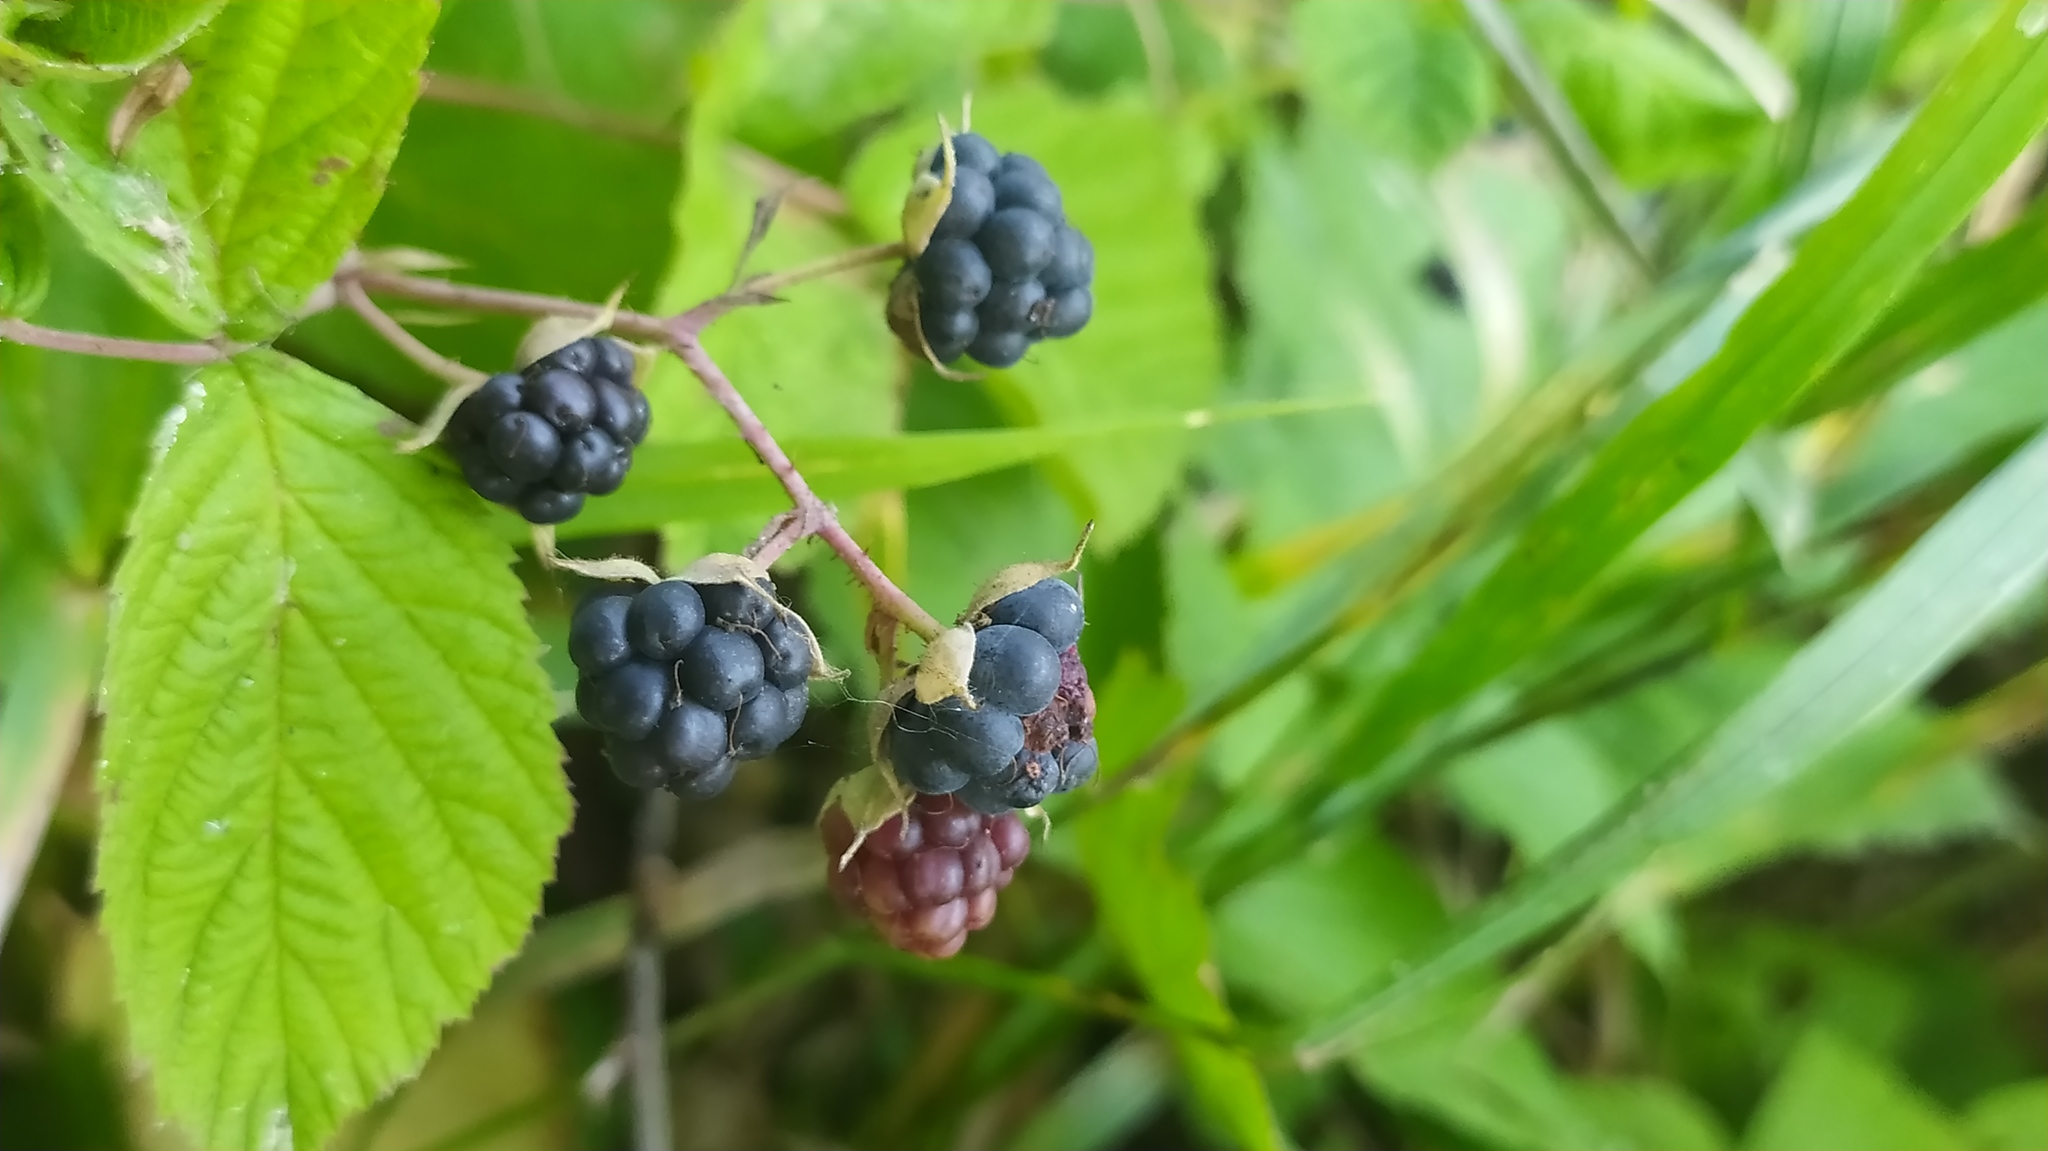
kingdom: Plantae
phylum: Tracheophyta
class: Magnoliopsida
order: Rosales
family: Rosaceae
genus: Rubus
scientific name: Rubus caesius
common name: Dewberry
